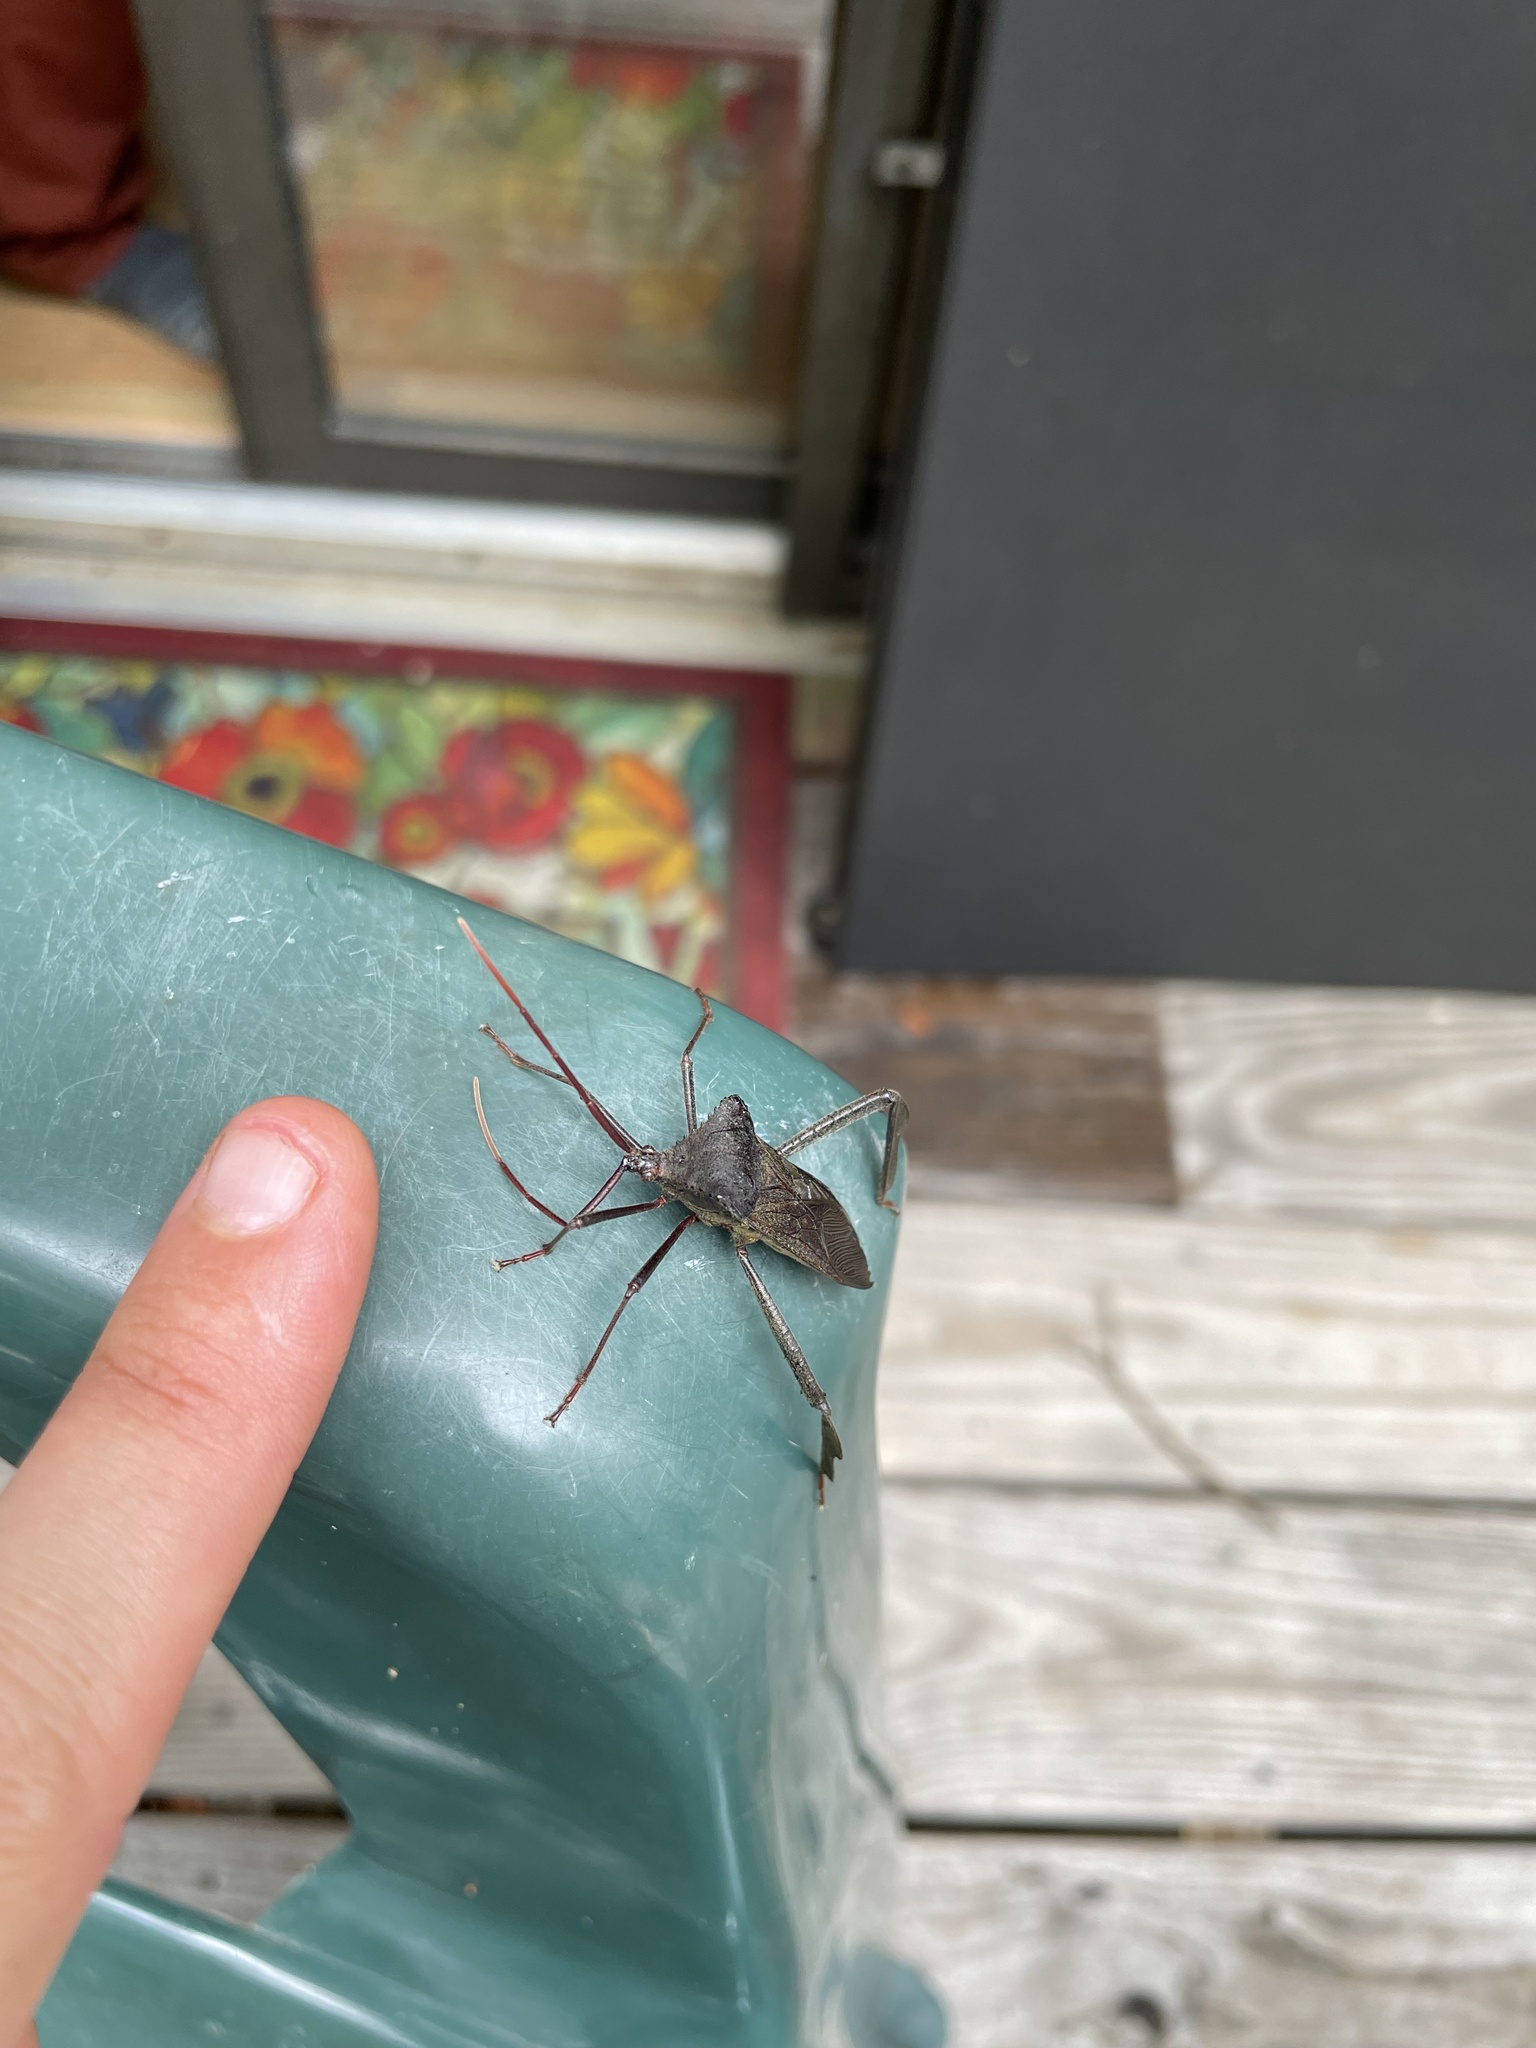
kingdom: Animalia
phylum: Arthropoda
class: Insecta
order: Hemiptera
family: Coreidae
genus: Acanthocephala
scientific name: Acanthocephala declivis
